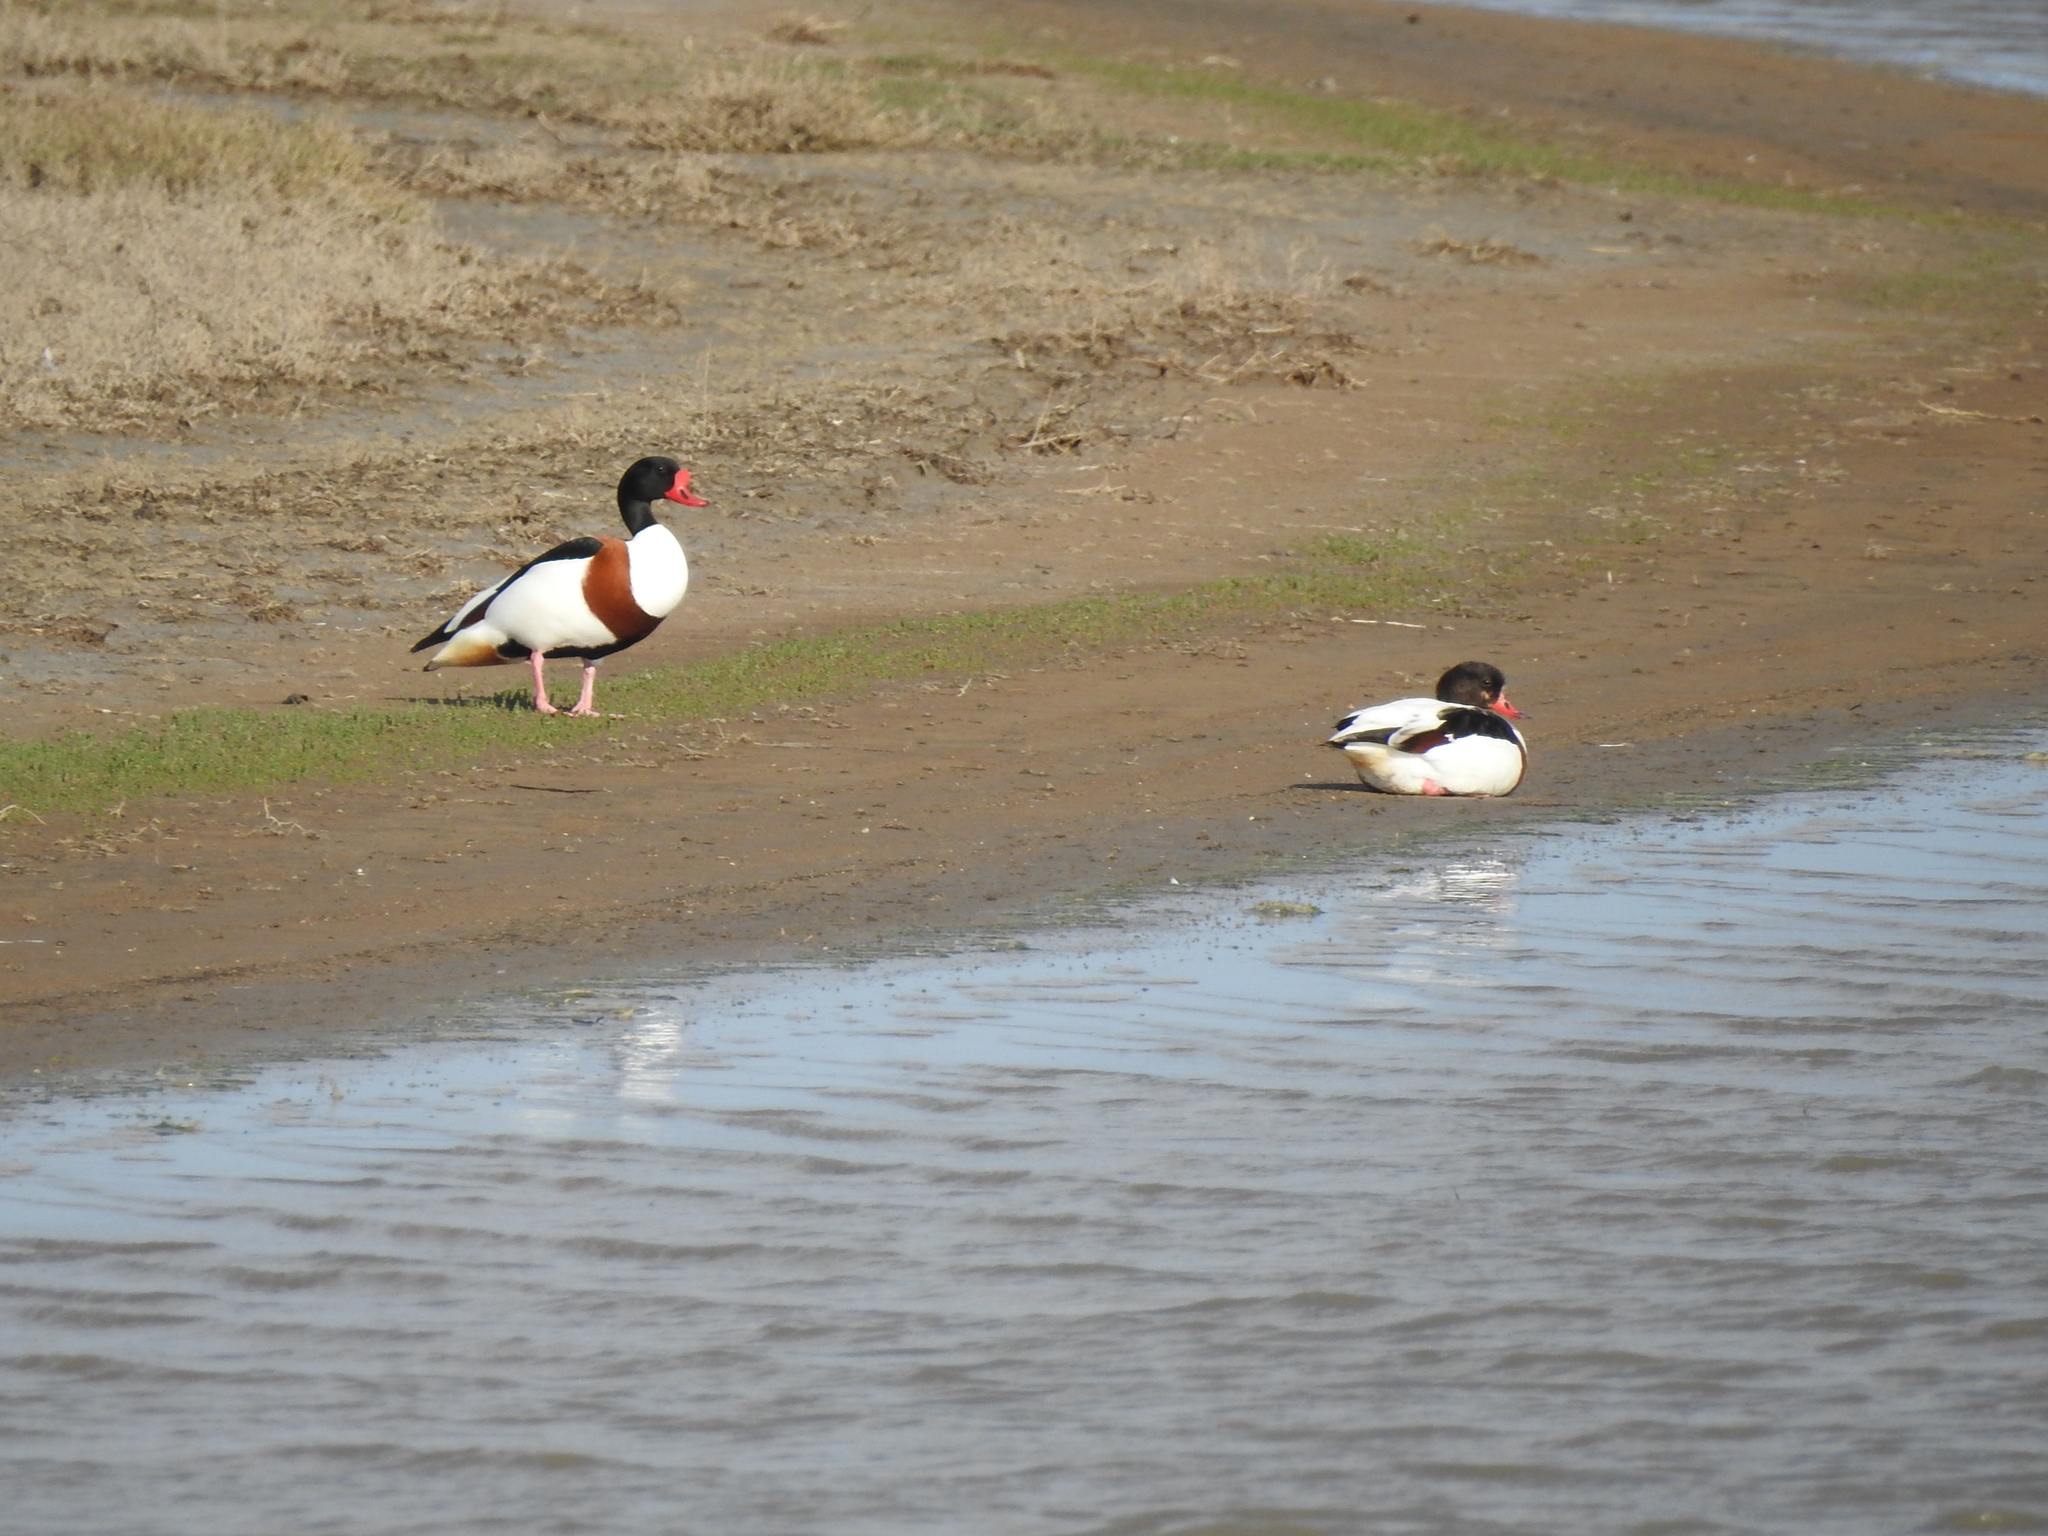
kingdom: Animalia
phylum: Chordata
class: Aves
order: Anseriformes
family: Anatidae
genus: Tadorna
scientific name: Tadorna tadorna
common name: Common shelduck
